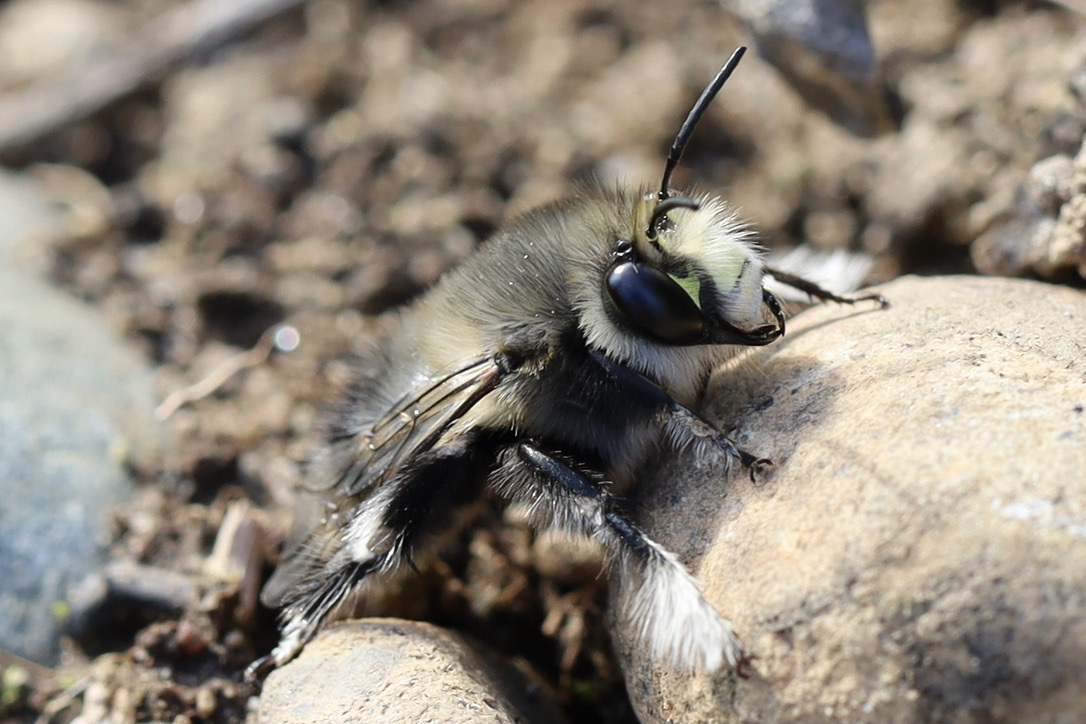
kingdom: Animalia
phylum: Arthropoda
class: Insecta
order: Hymenoptera
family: Apidae
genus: Anthophora
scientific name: Anthophora pacifica
